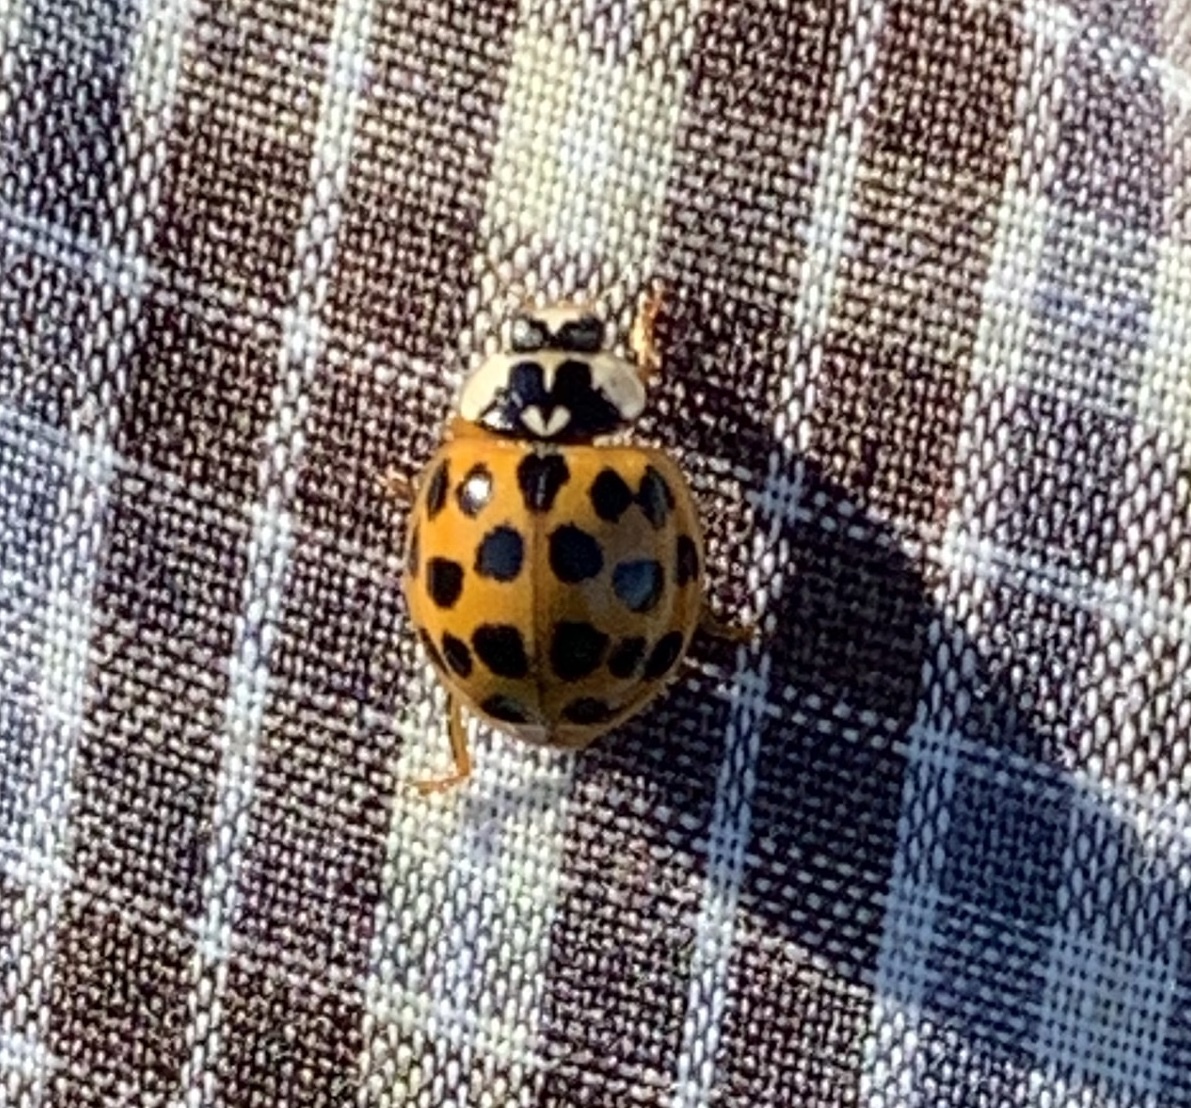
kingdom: Animalia
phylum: Arthropoda
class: Insecta
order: Coleoptera
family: Coccinellidae
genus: Harmonia
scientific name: Harmonia axyridis
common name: Harlequin ladybird
